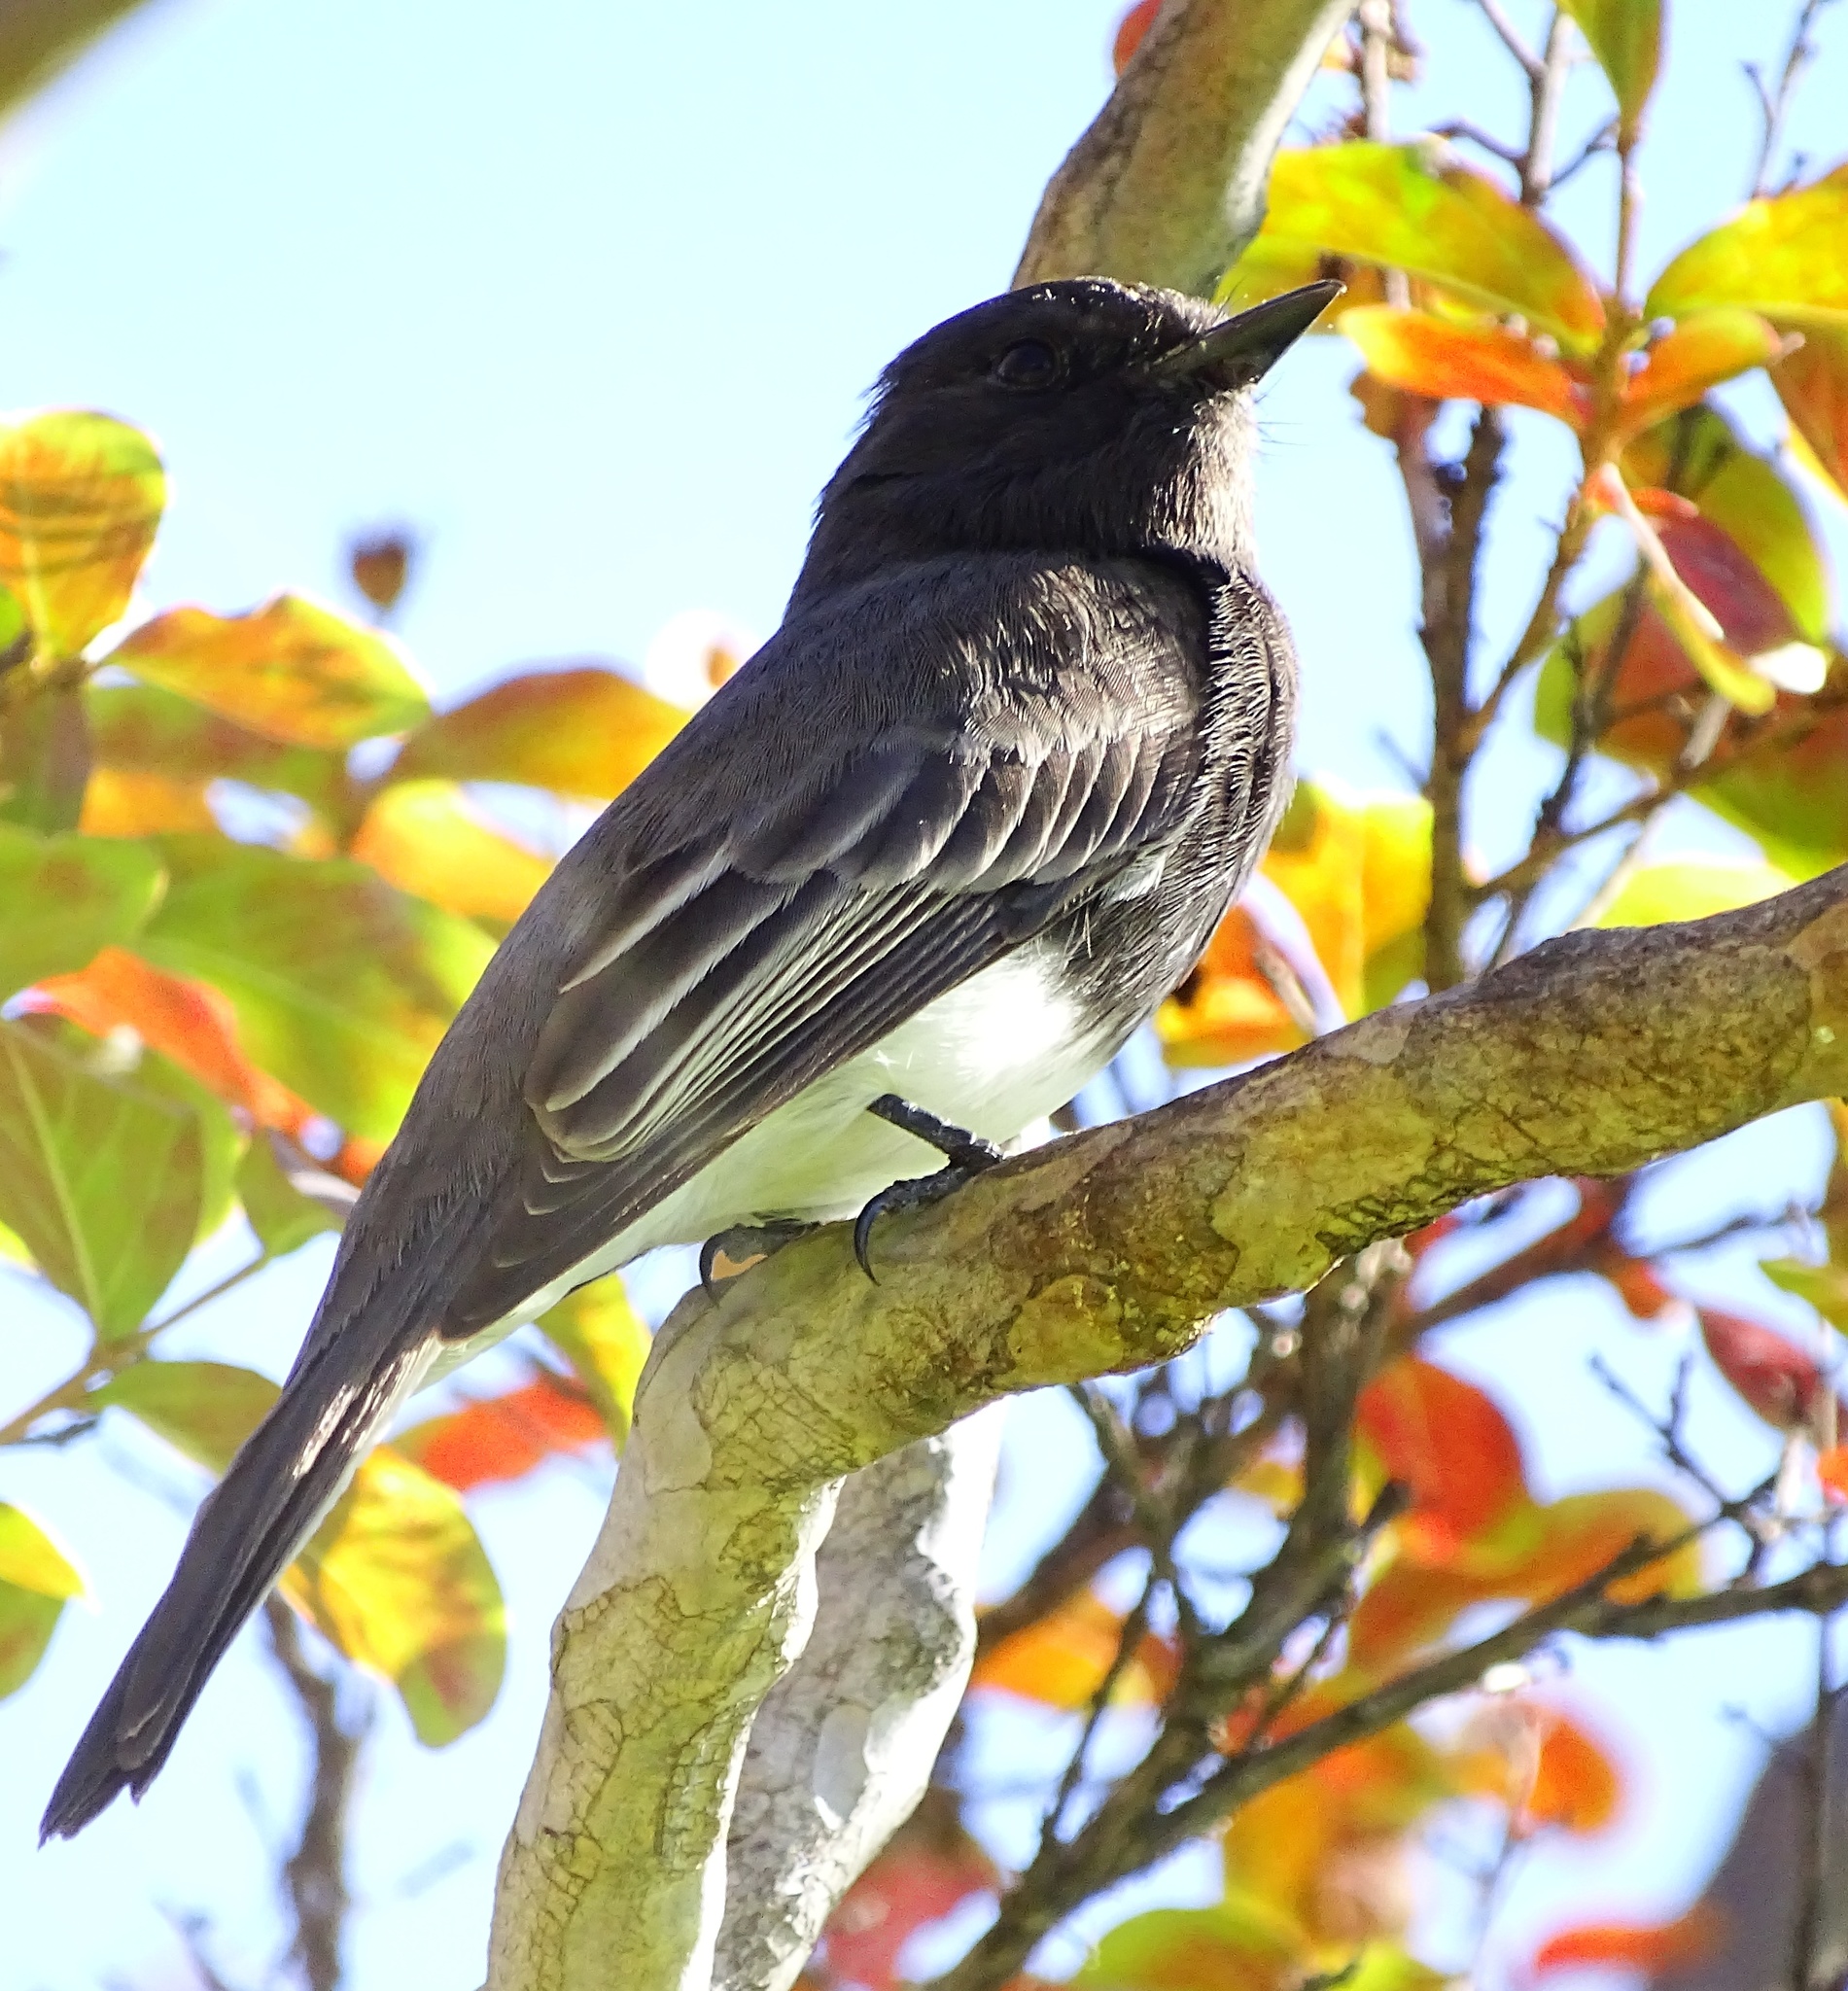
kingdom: Animalia
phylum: Chordata
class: Aves
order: Passeriformes
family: Tyrannidae
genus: Sayornis
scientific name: Sayornis nigricans
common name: Black phoebe
